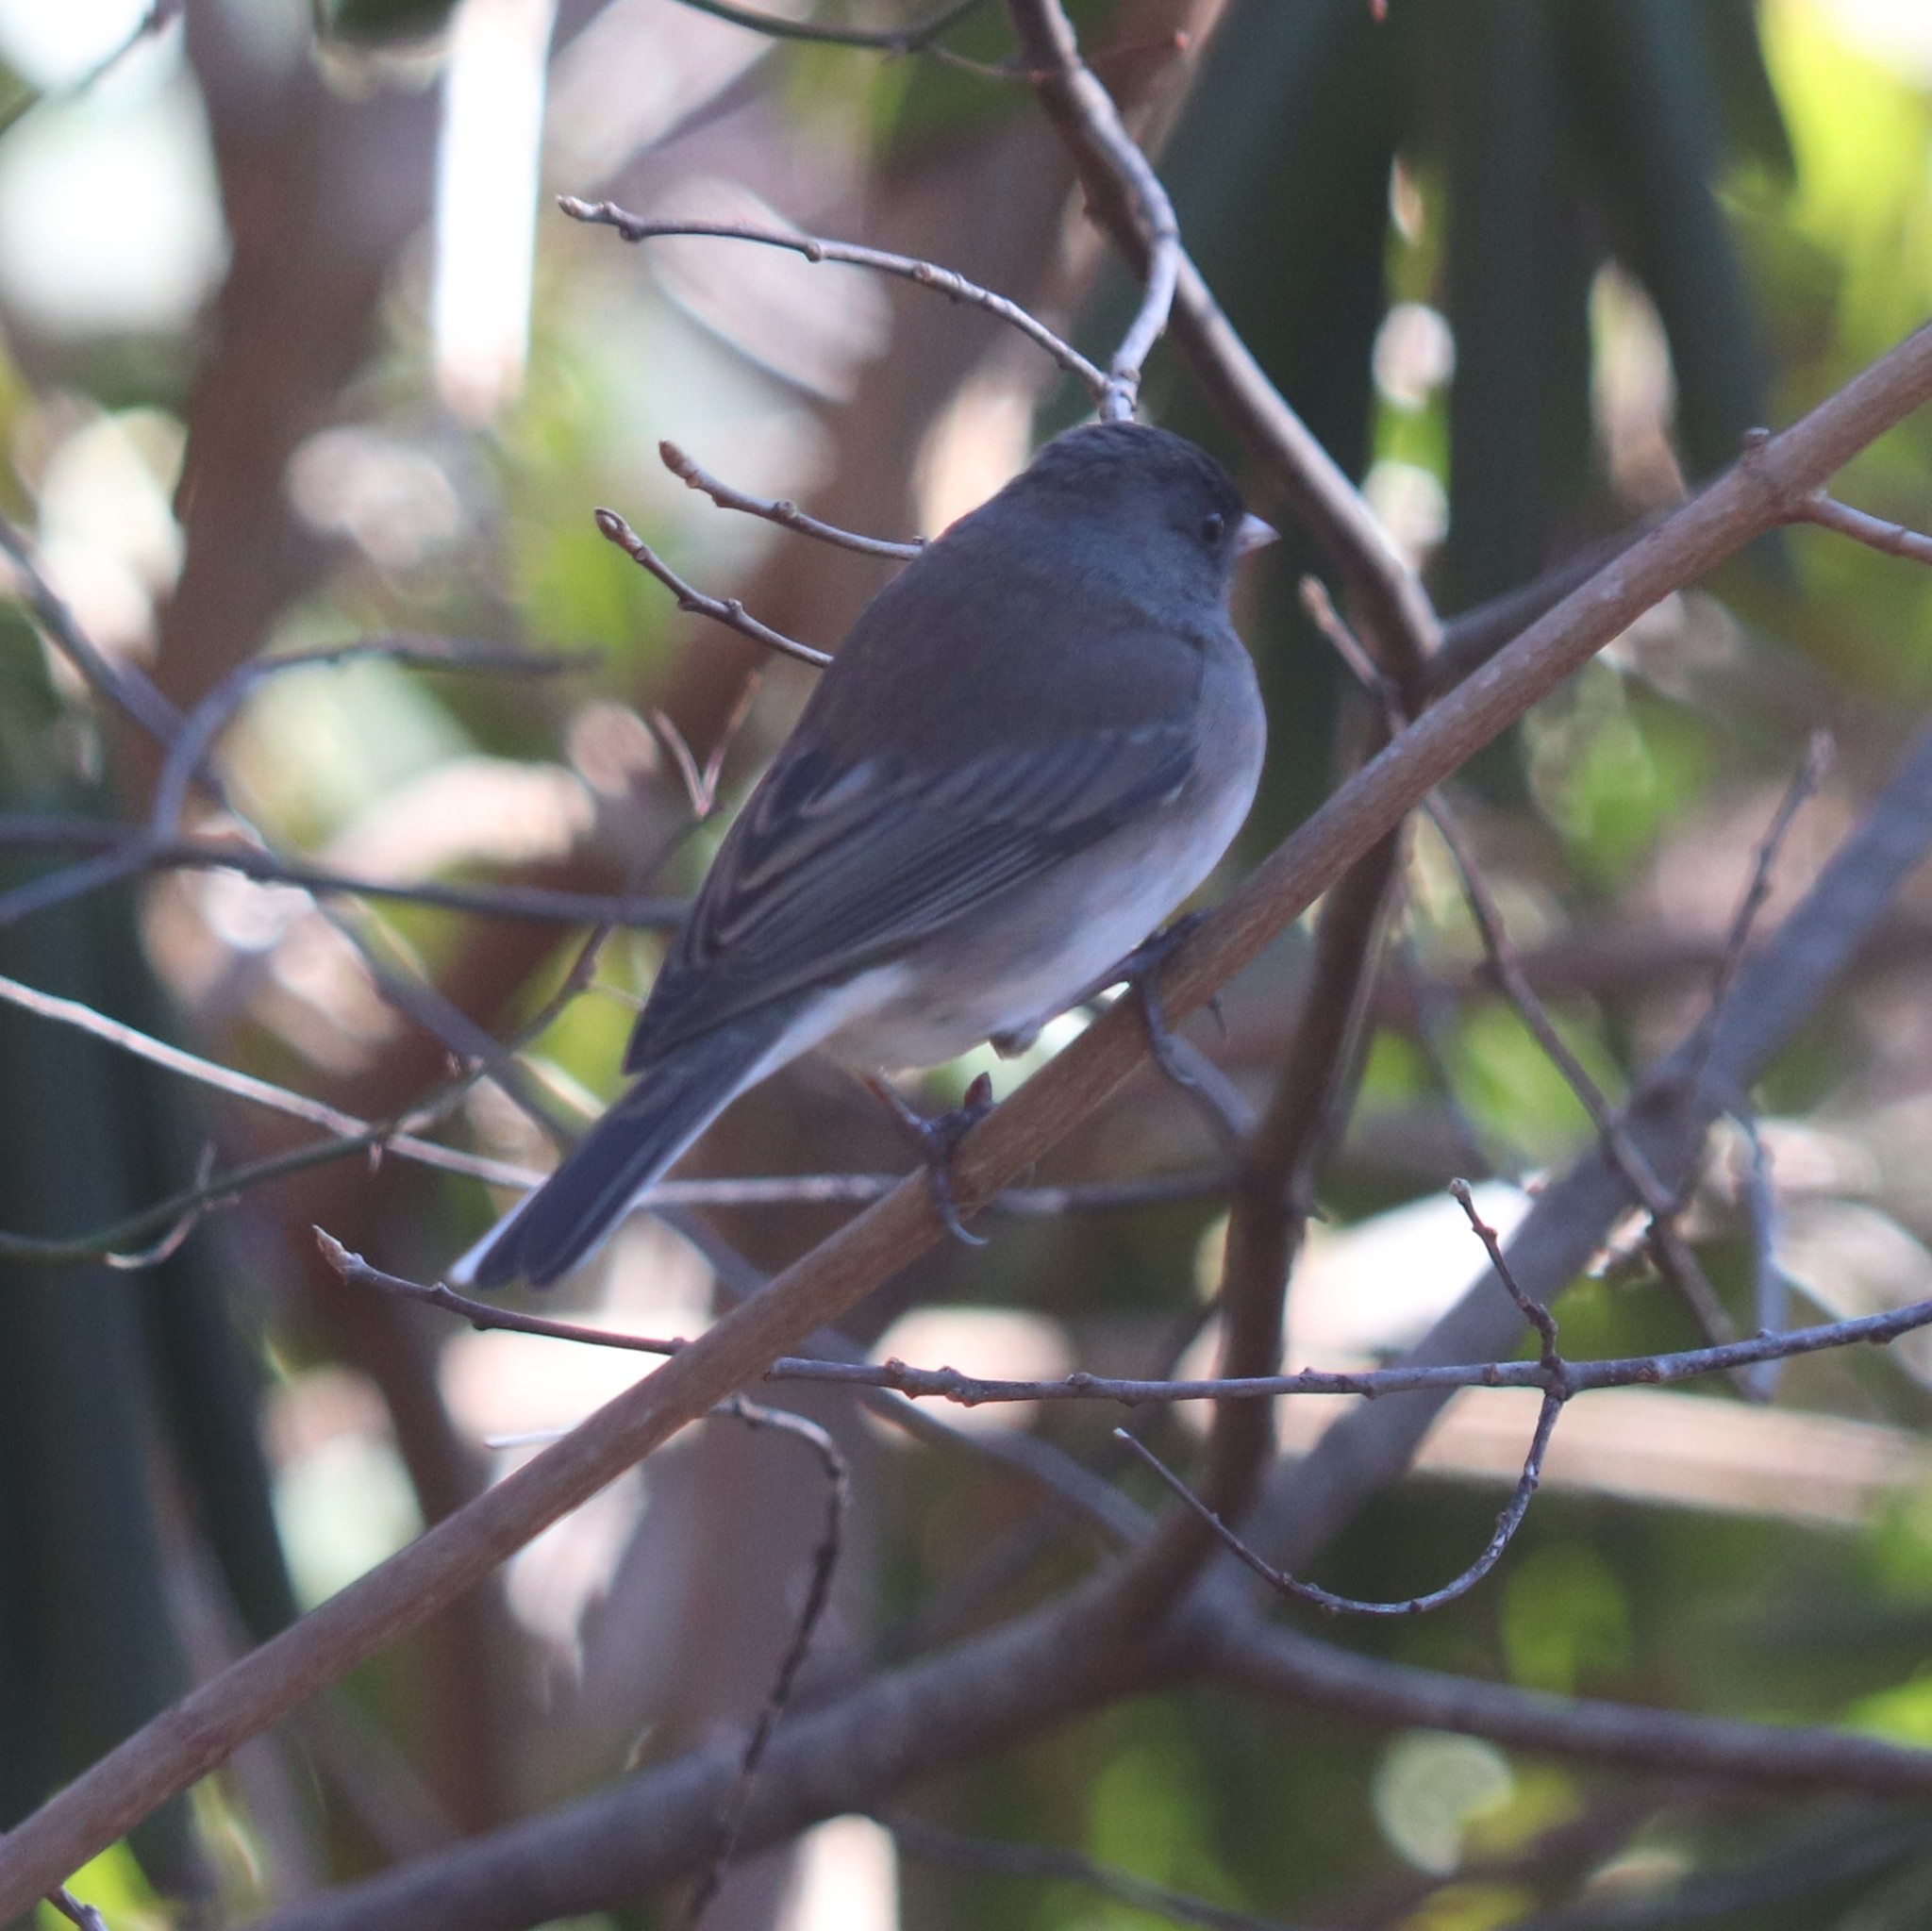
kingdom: Animalia
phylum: Chordata
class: Aves
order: Passeriformes
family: Passerellidae
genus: Junco
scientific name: Junco hyemalis
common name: Dark-eyed junco
